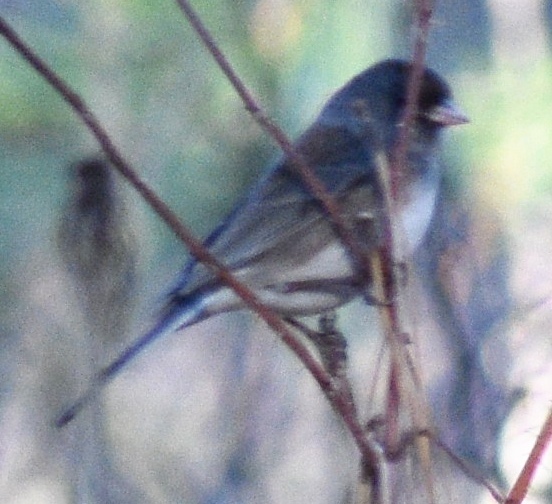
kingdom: Animalia
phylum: Chordata
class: Aves
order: Passeriformes
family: Passerellidae
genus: Junco
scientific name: Junco hyemalis
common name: Dark-eyed junco
